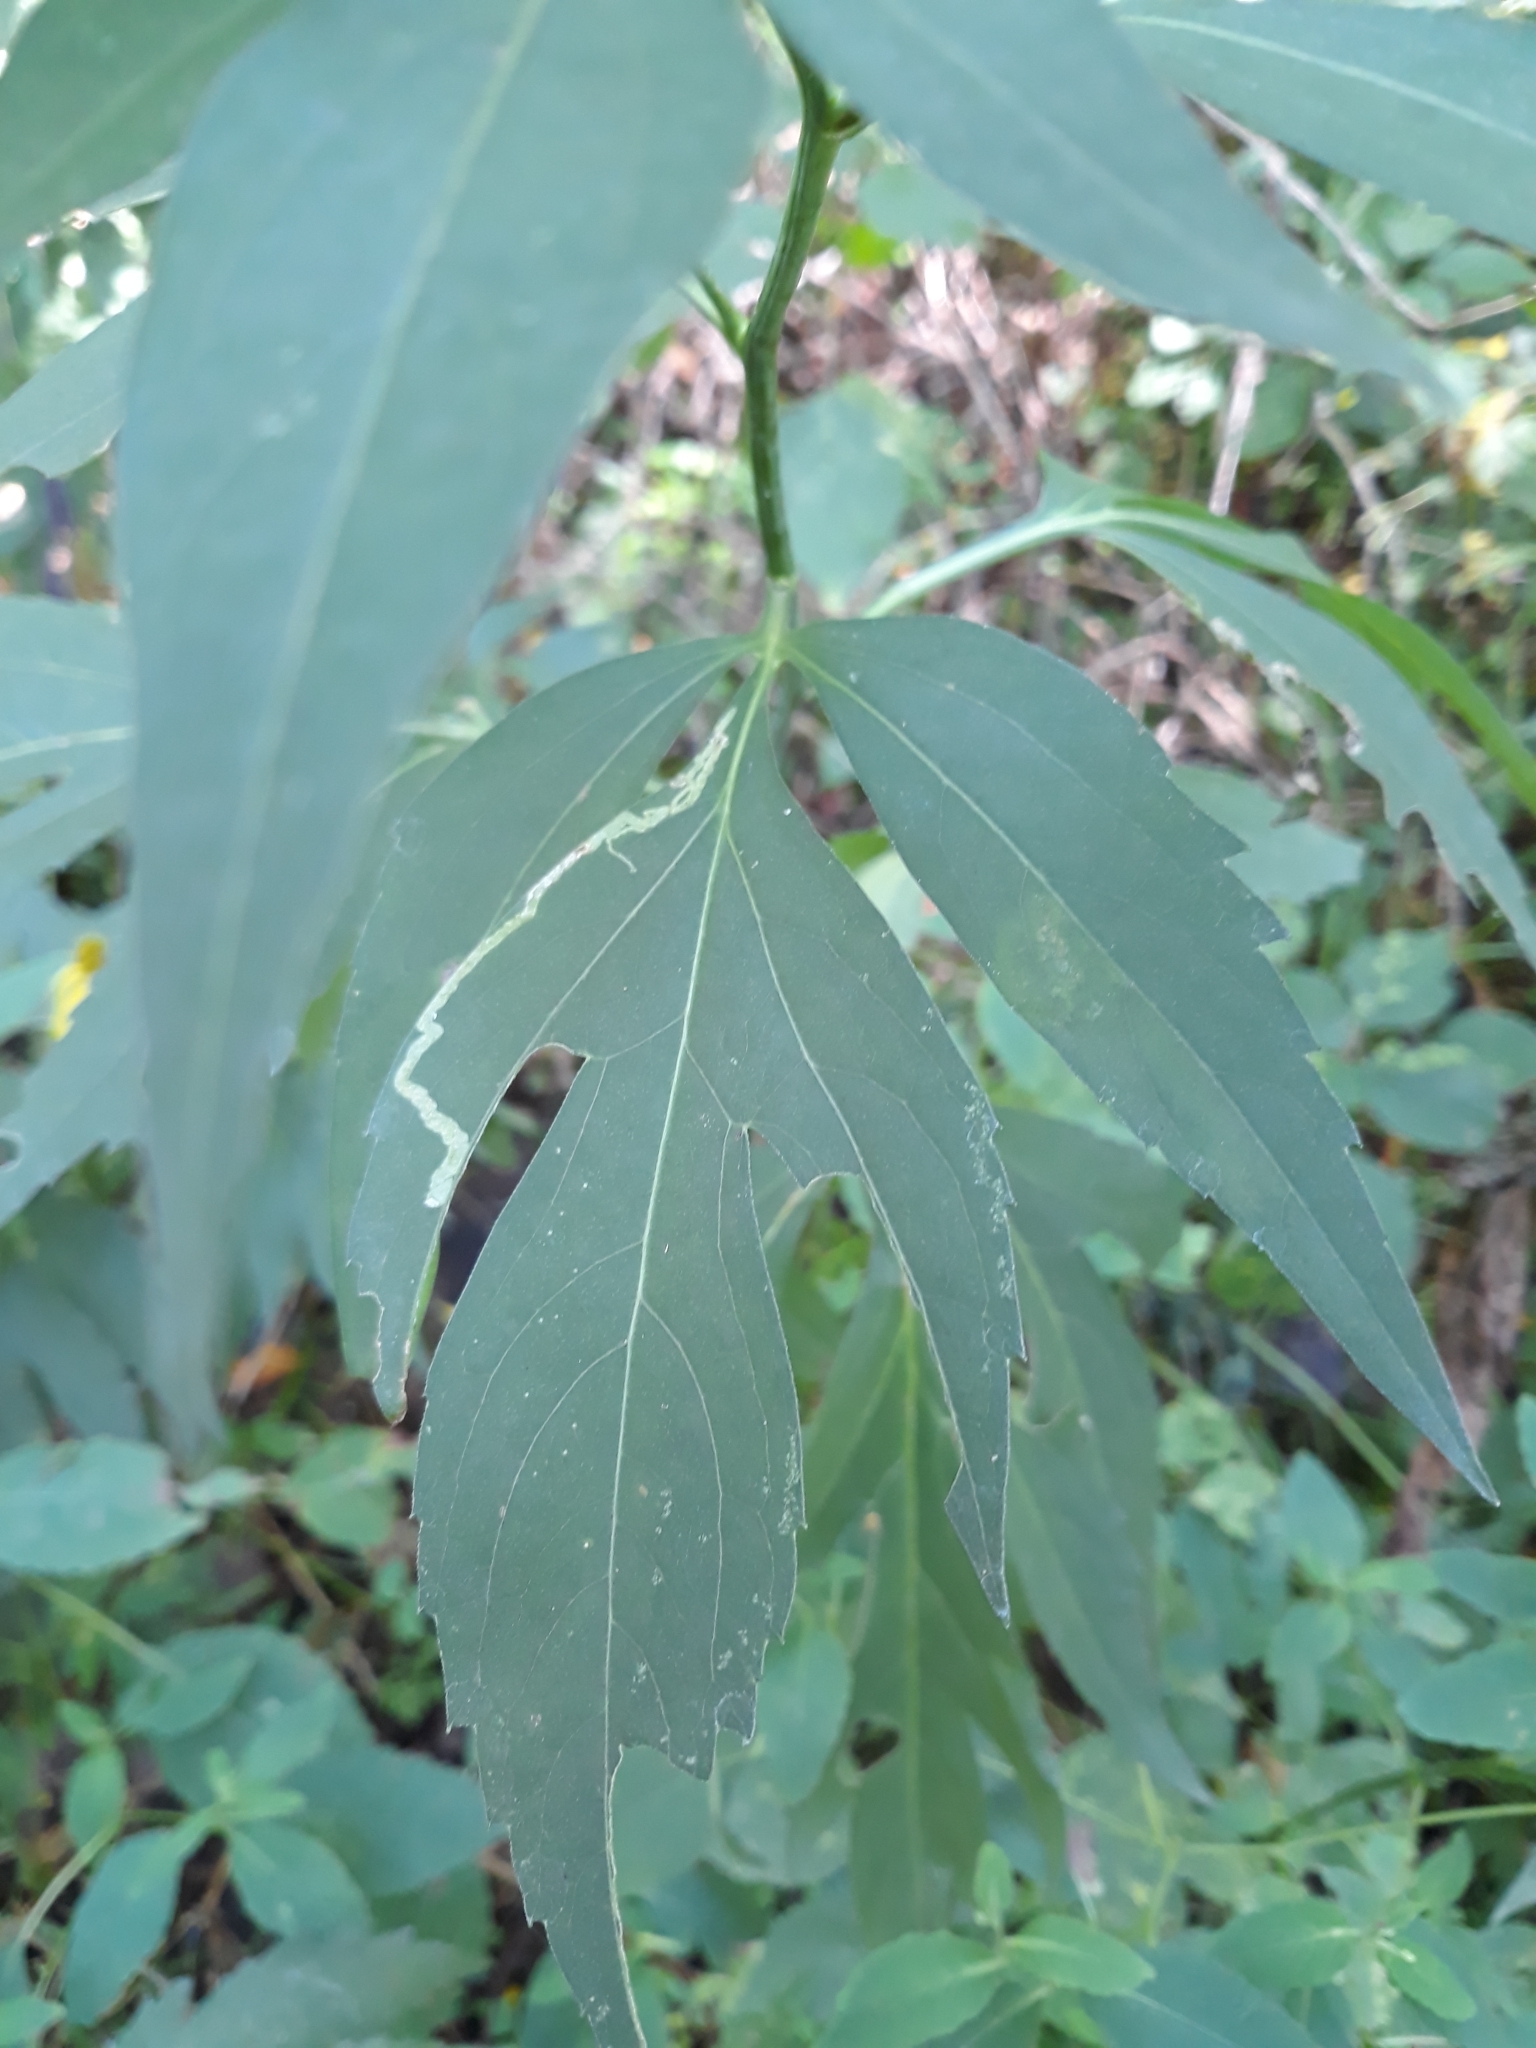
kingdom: Plantae
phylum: Tracheophyta
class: Magnoliopsida
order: Asterales
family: Asteraceae
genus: Rudbeckia
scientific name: Rudbeckia laciniata
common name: Coneflower
